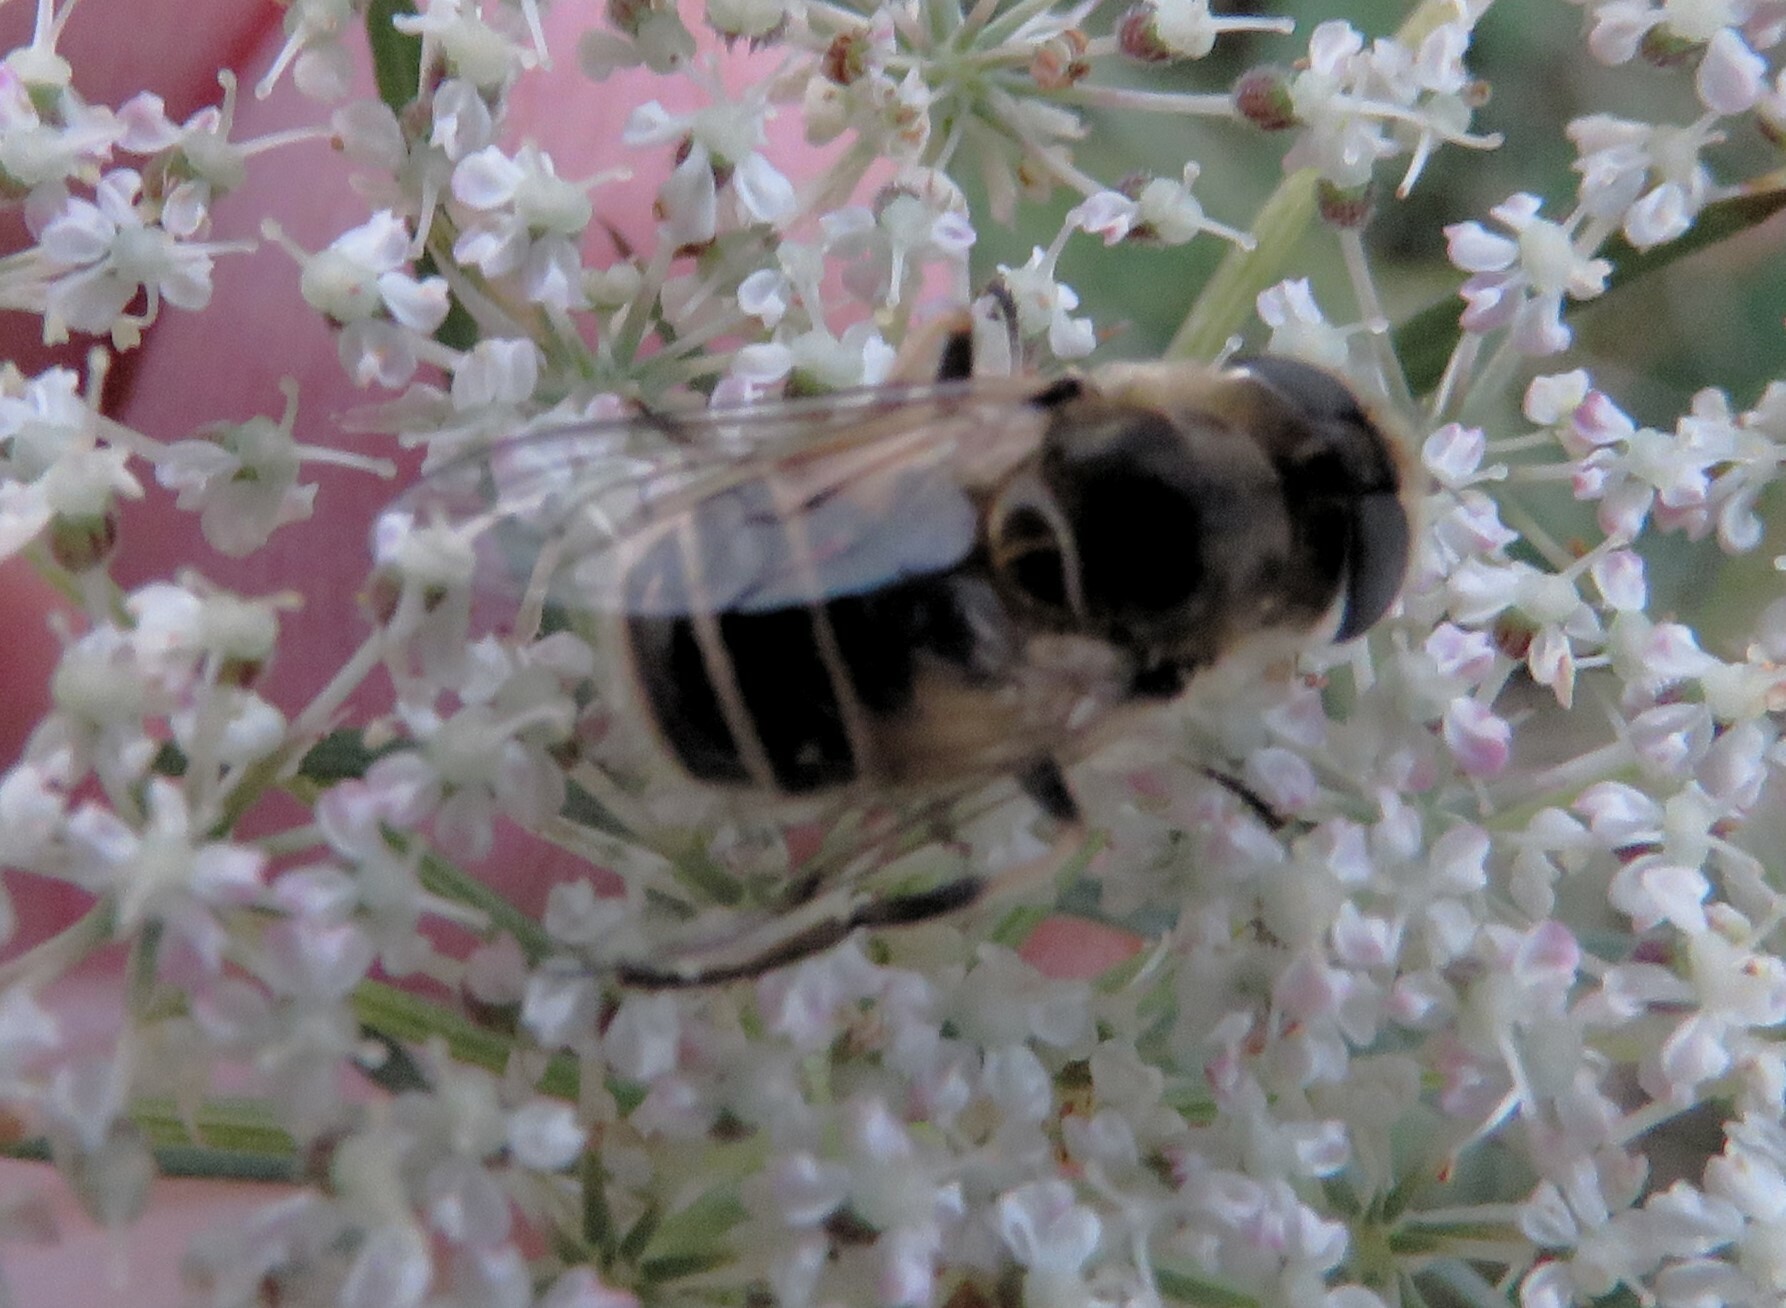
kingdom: Animalia
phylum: Arthropoda
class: Insecta
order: Diptera
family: Syrphidae
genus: Eristalis
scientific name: Eristalis arbustorum
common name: Hover fly
